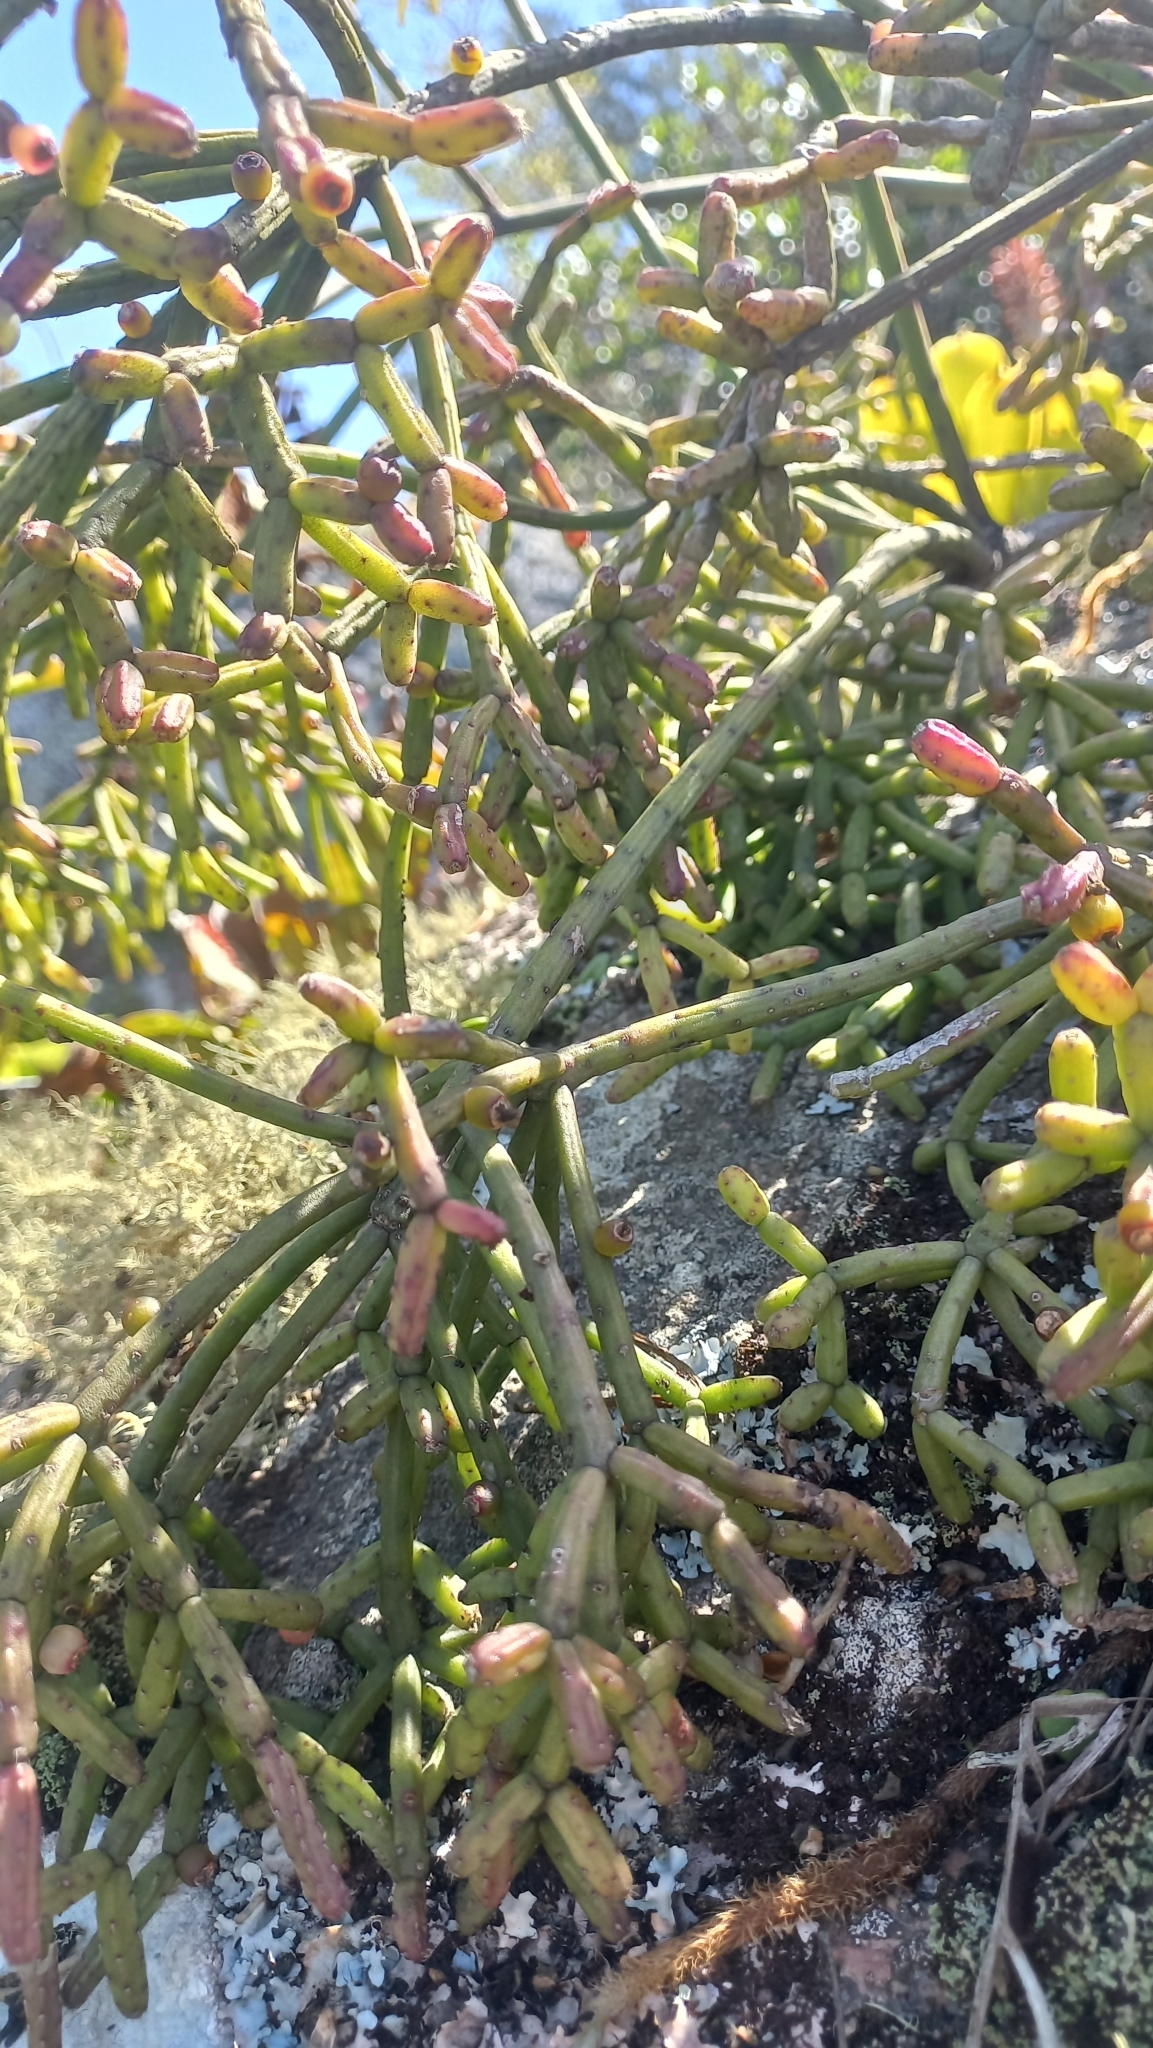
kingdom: Plantae
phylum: Tracheophyta
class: Magnoliopsida
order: Caryophyllales
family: Cactaceae
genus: Rhipsalis
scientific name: Rhipsalis cereuscula
